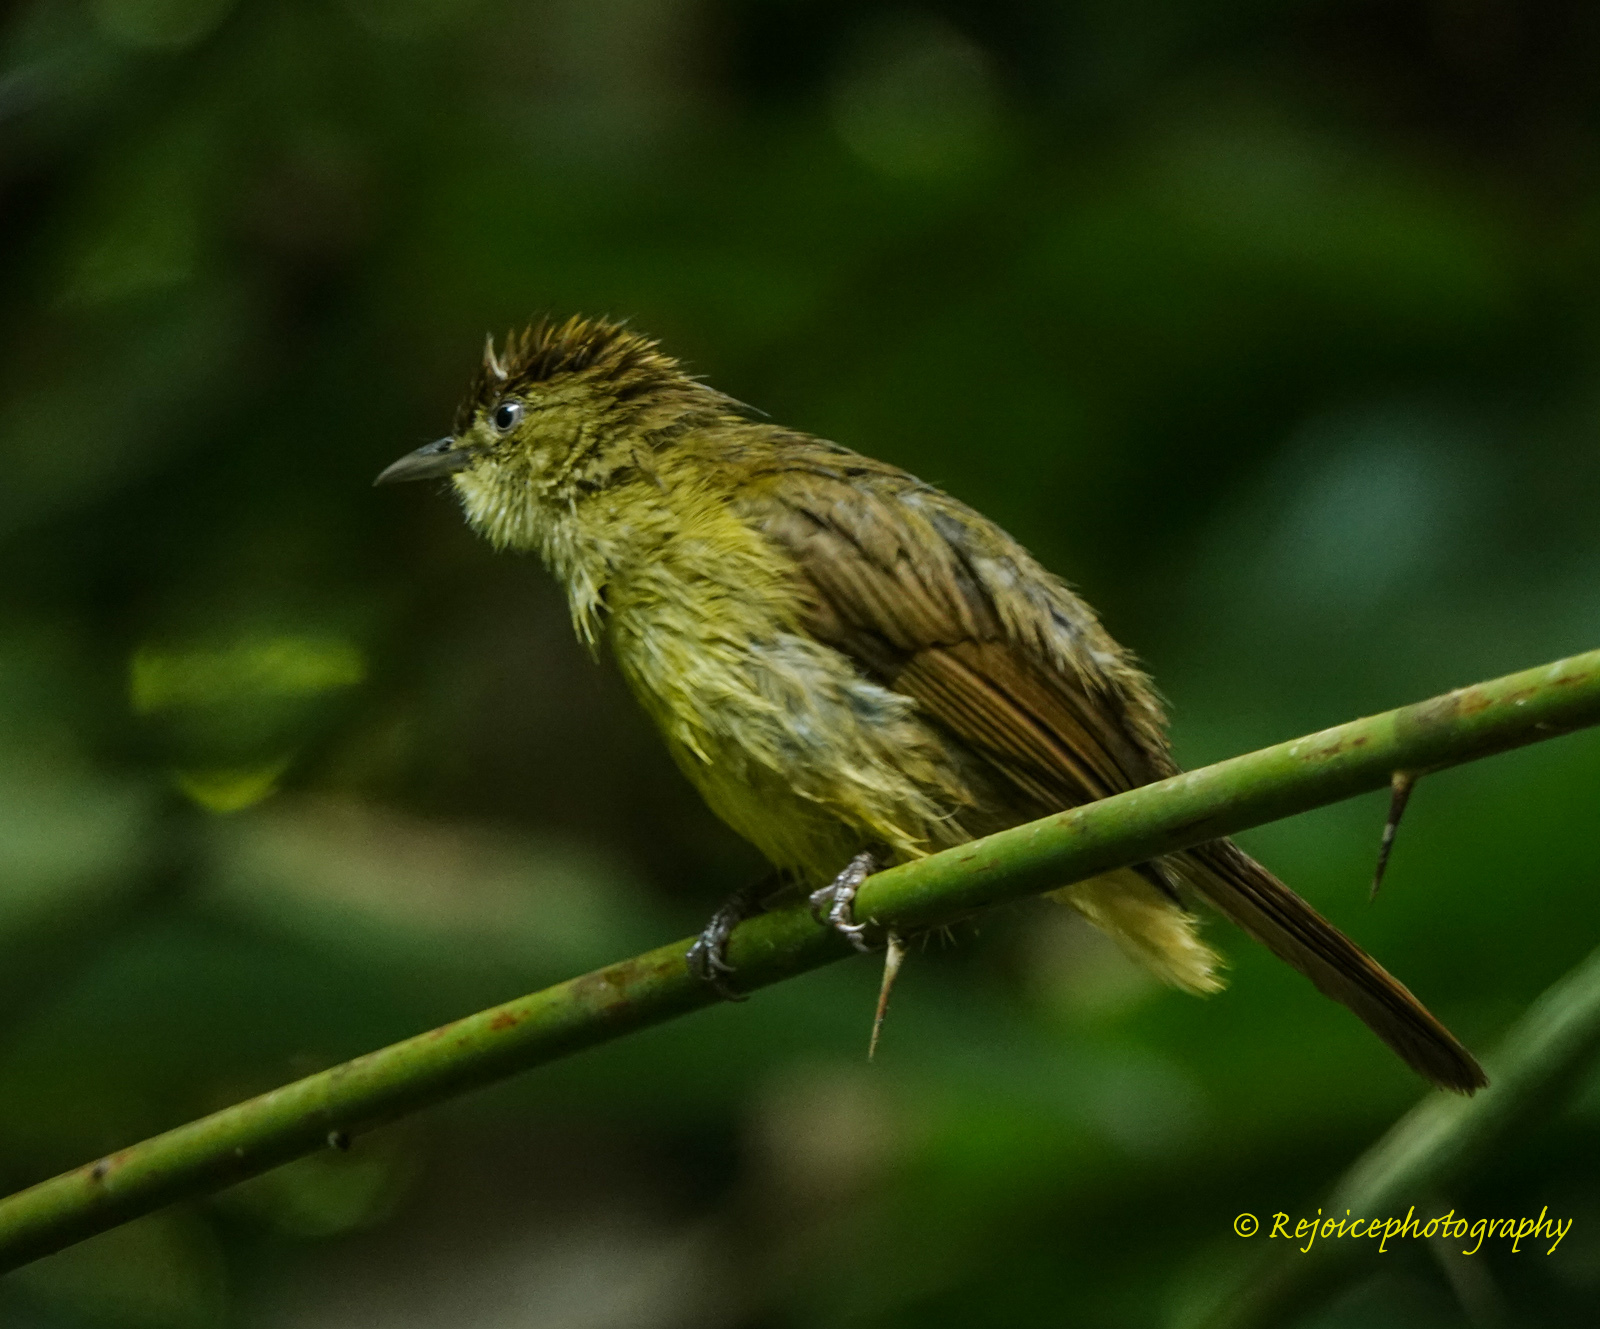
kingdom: Animalia
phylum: Chordata
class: Aves
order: Passeriformes
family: Pycnonotidae
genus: Iole
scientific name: Iole virescens
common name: Olive bulbul
